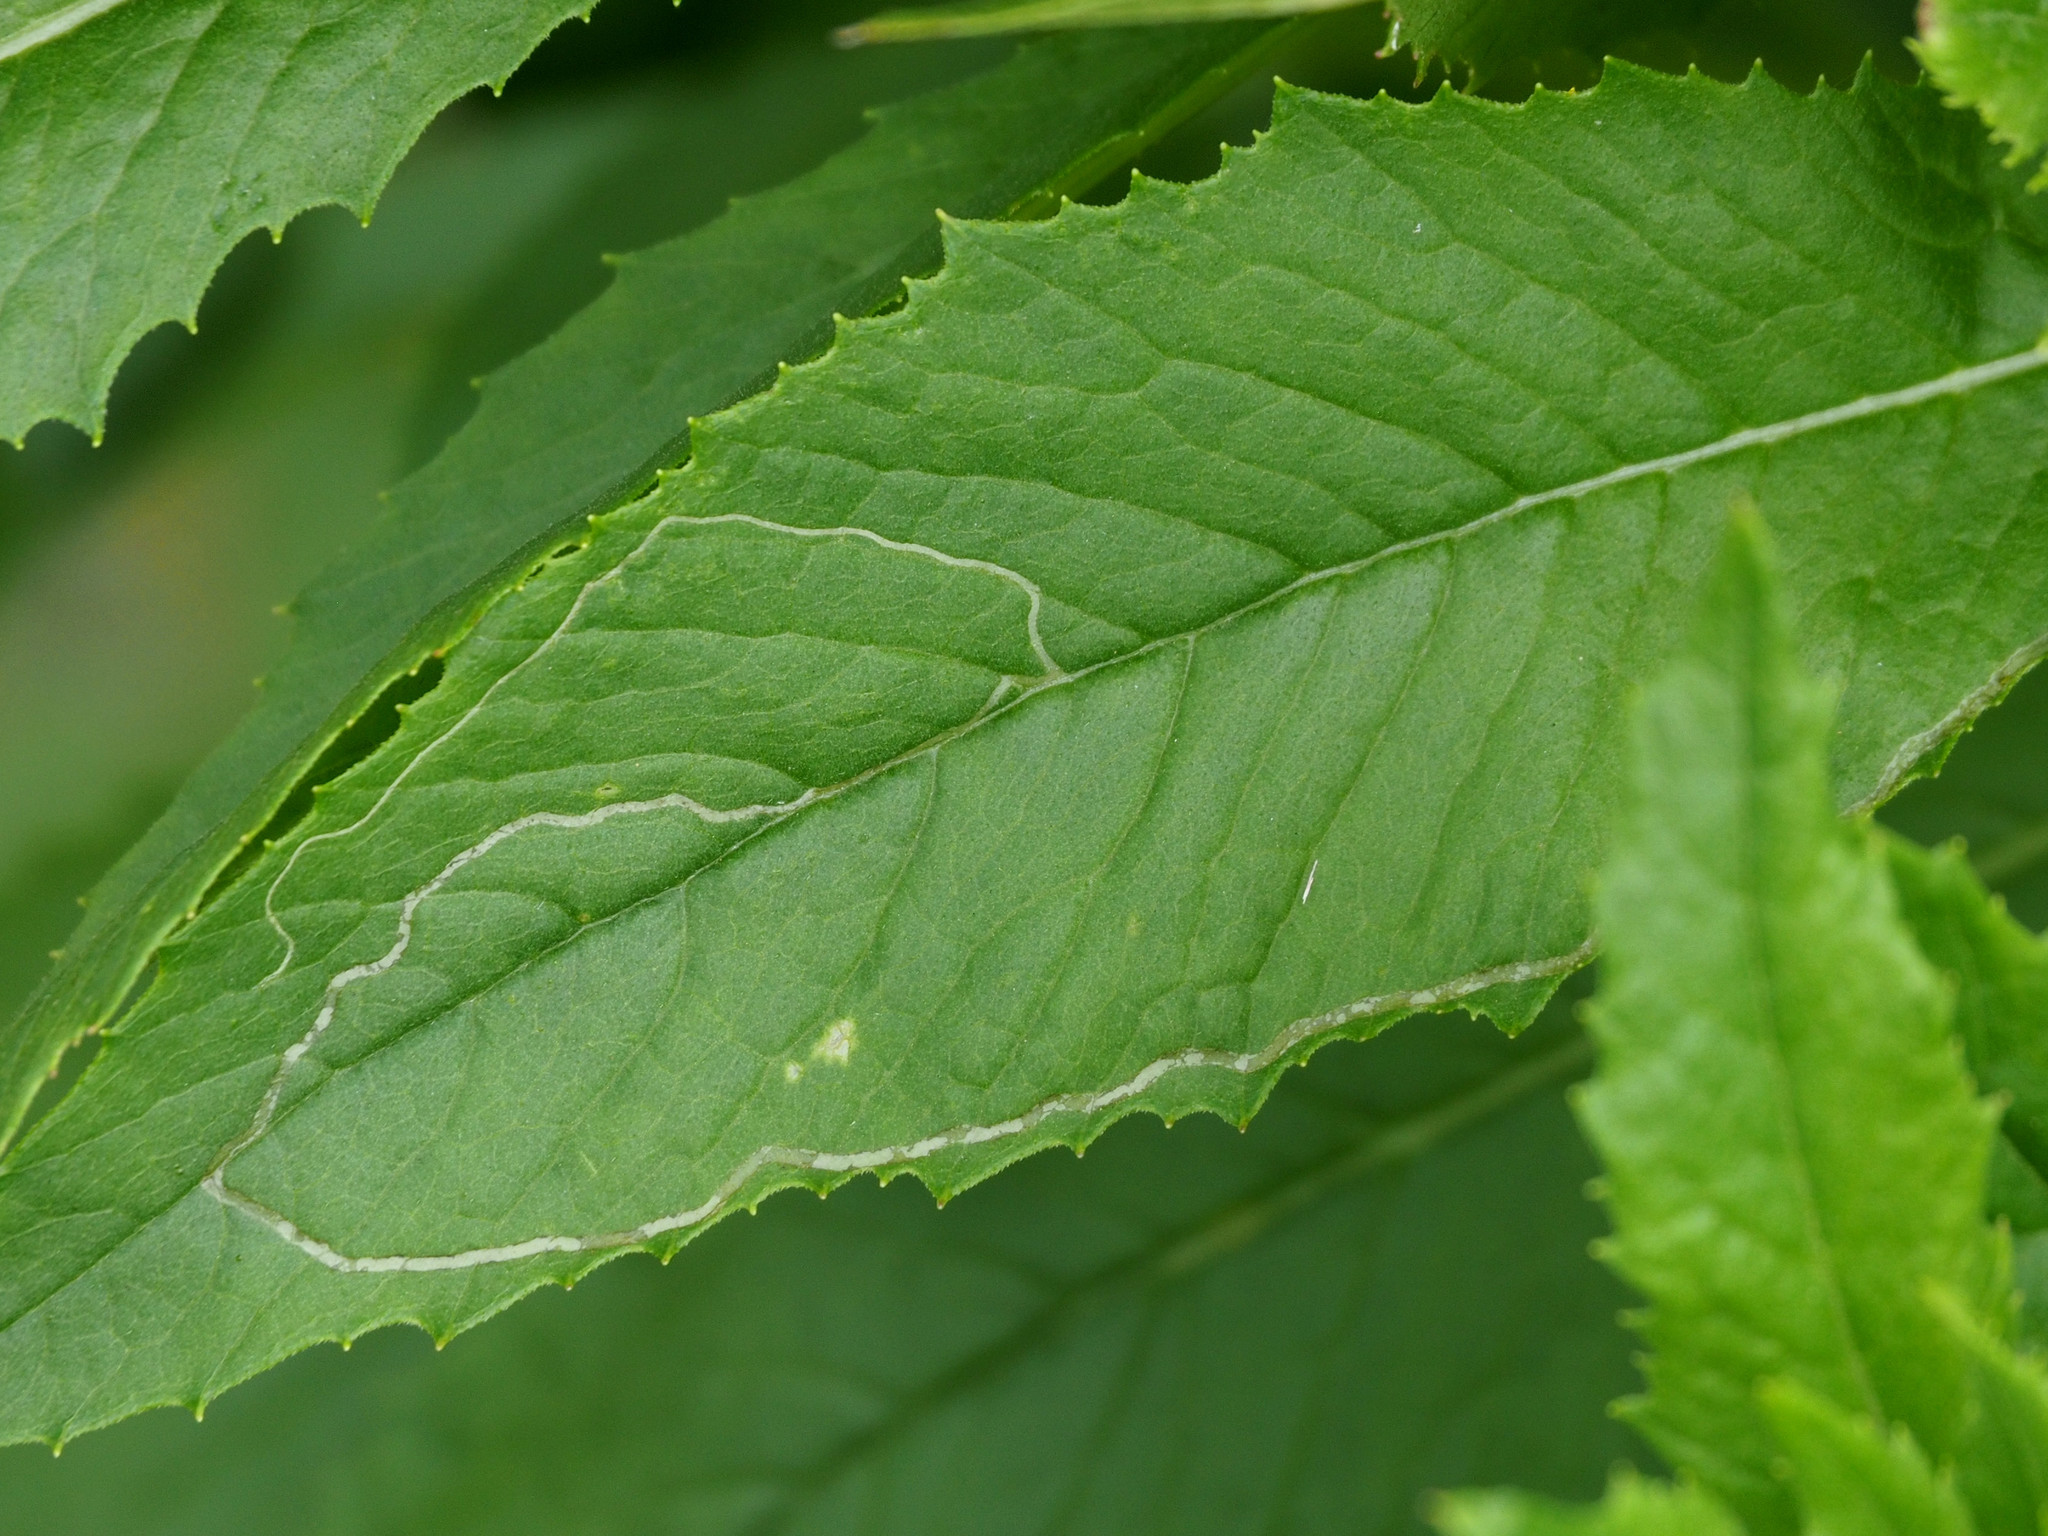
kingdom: Animalia
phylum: Arthropoda
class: Insecta
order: Lepidoptera
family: Gracillariidae
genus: Phyllocnistis
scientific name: Phyllocnistis insignis
